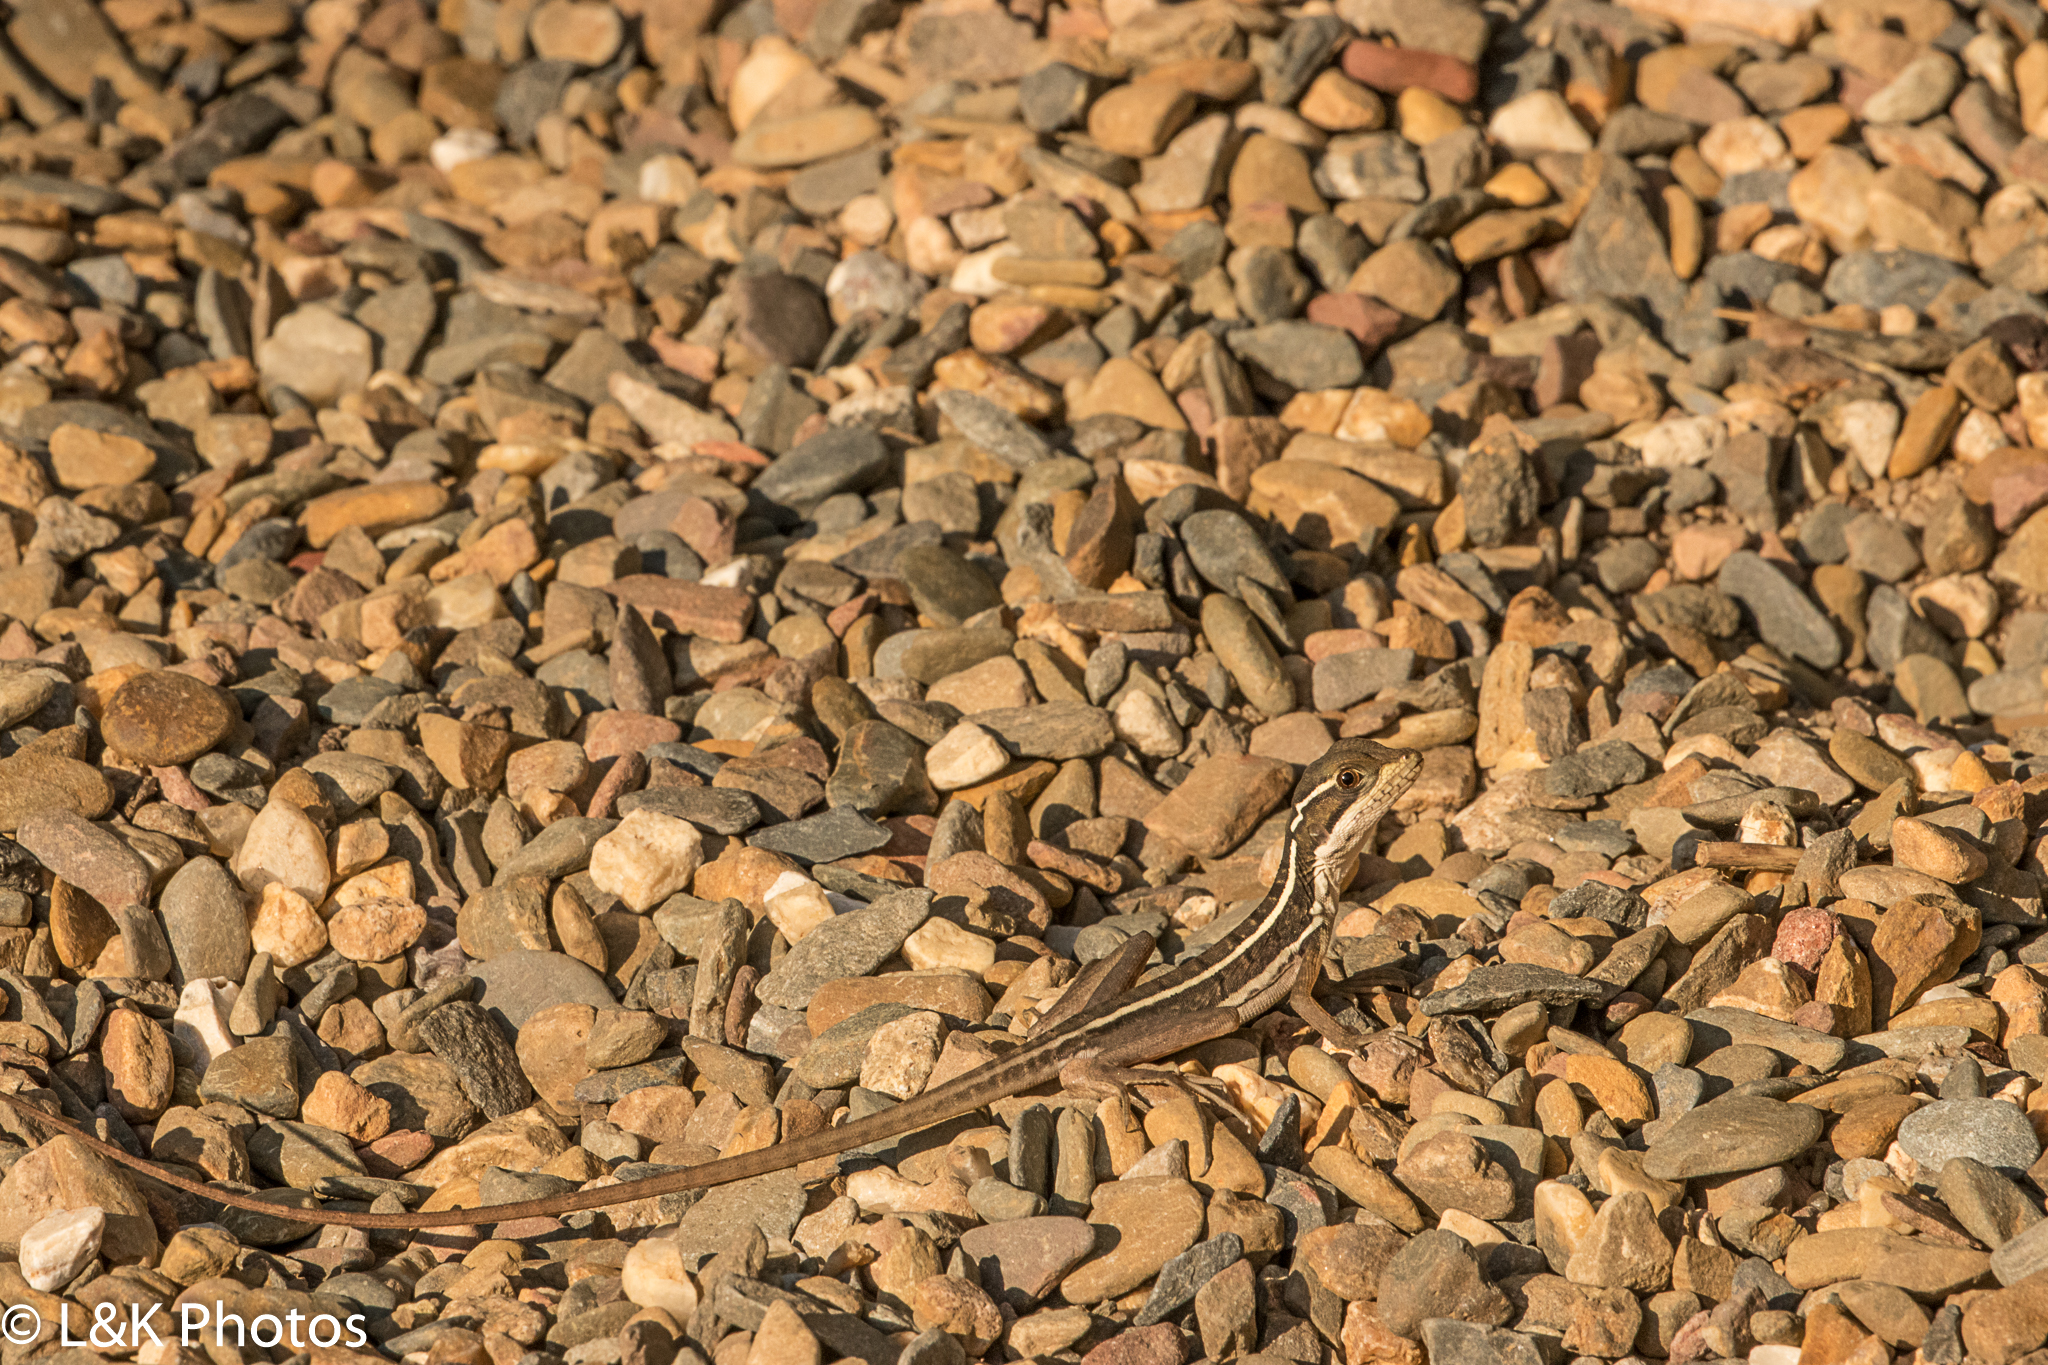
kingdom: Animalia
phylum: Chordata
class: Squamata
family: Corytophanidae
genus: Basiliscus
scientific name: Basiliscus vittatus
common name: Brown basilisk
